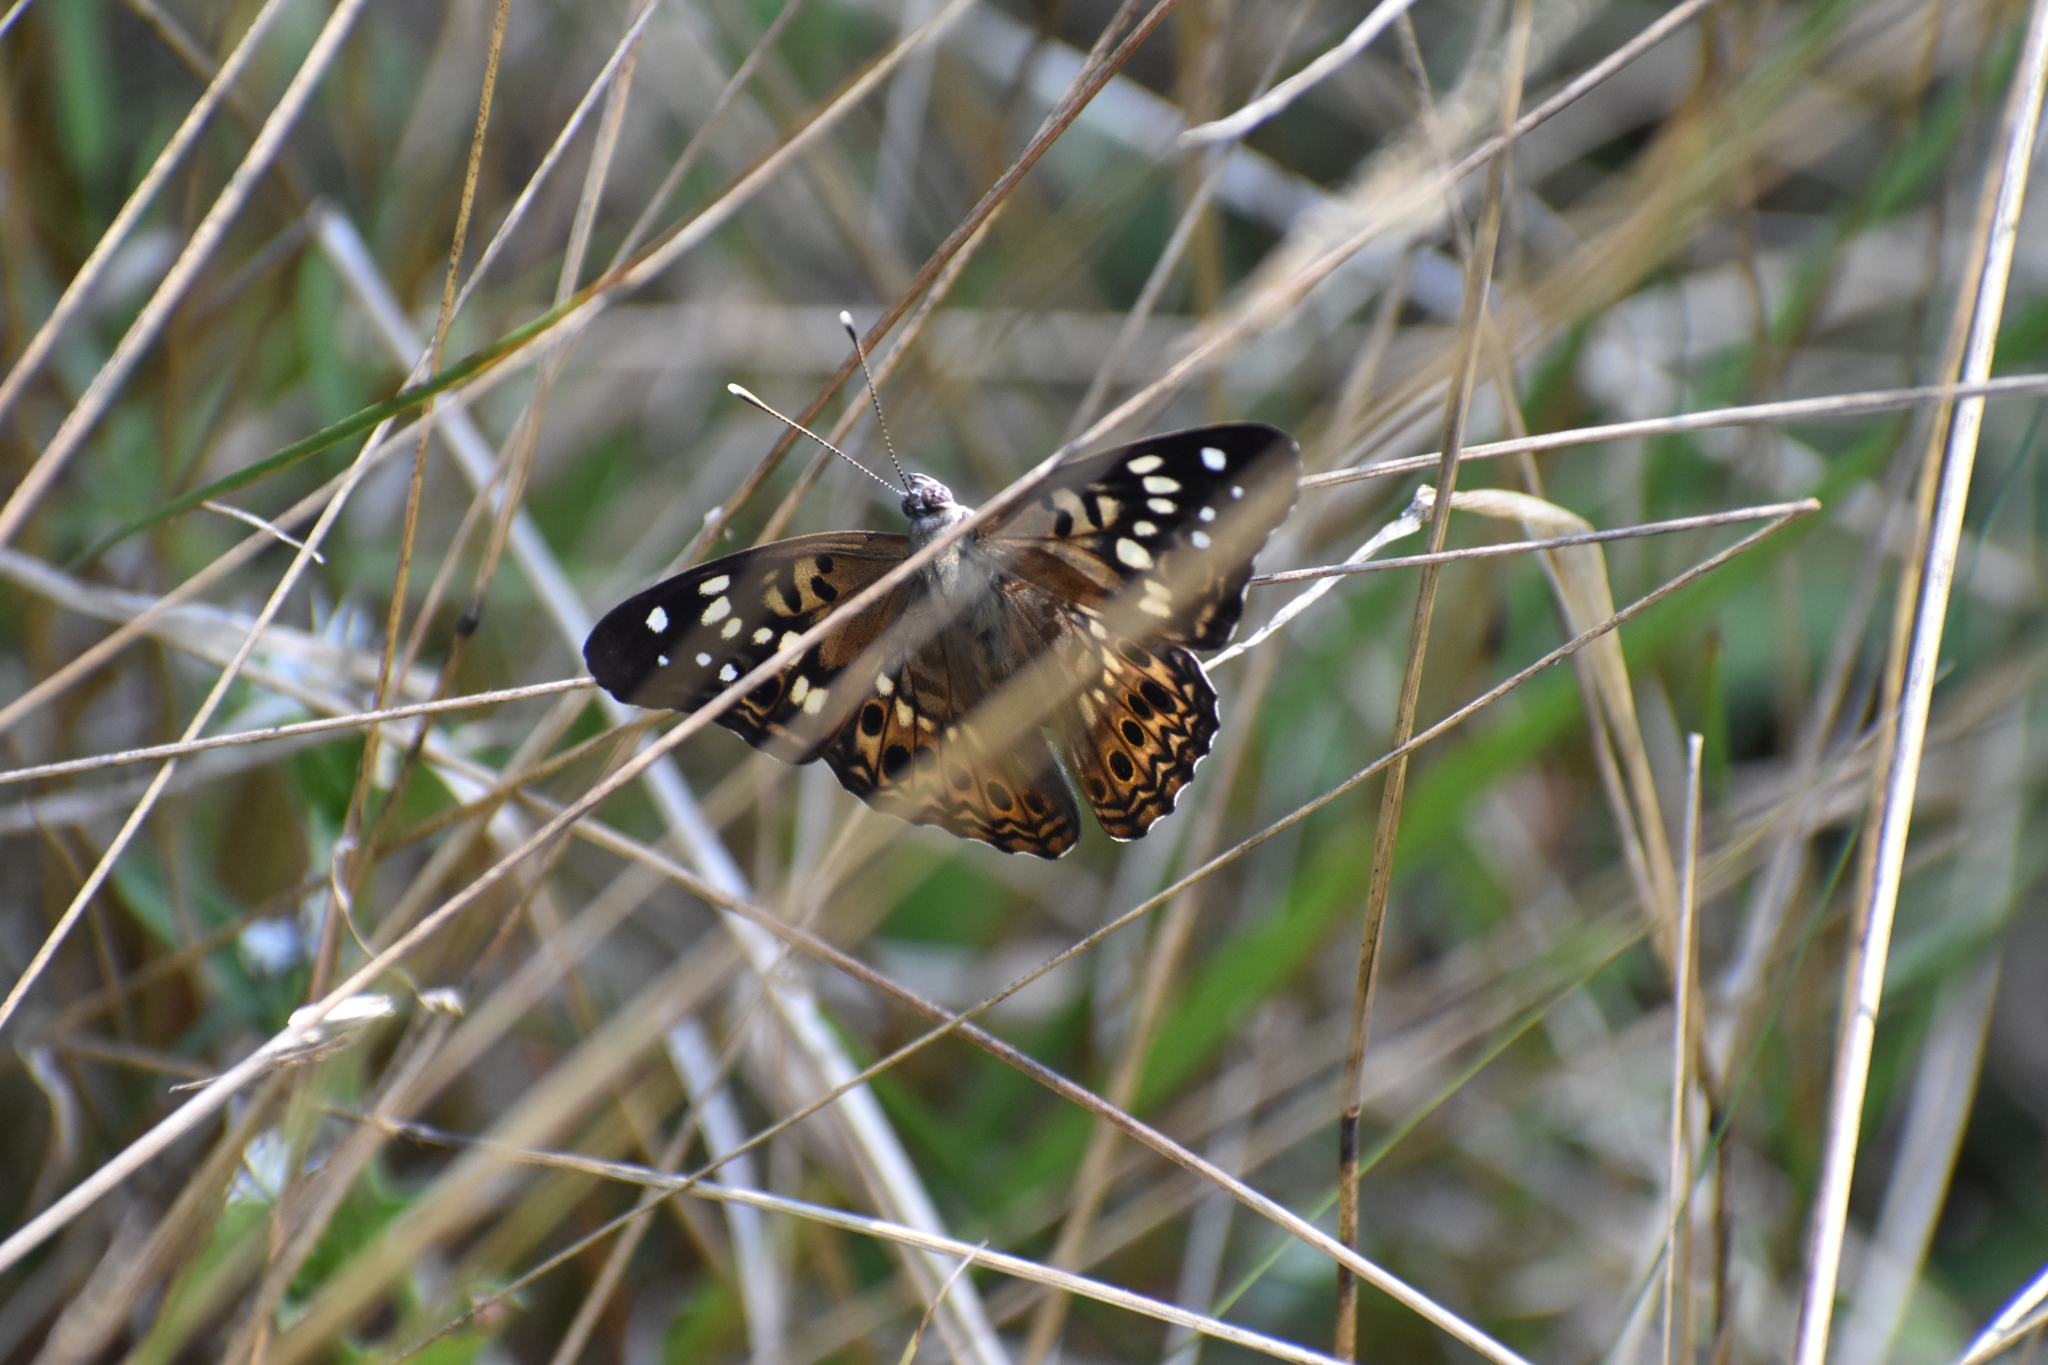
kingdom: Animalia
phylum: Arthropoda
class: Insecta
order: Lepidoptera
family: Nymphalidae
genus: Asterocampa
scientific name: Asterocampa celtis
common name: Hackberry emperor
